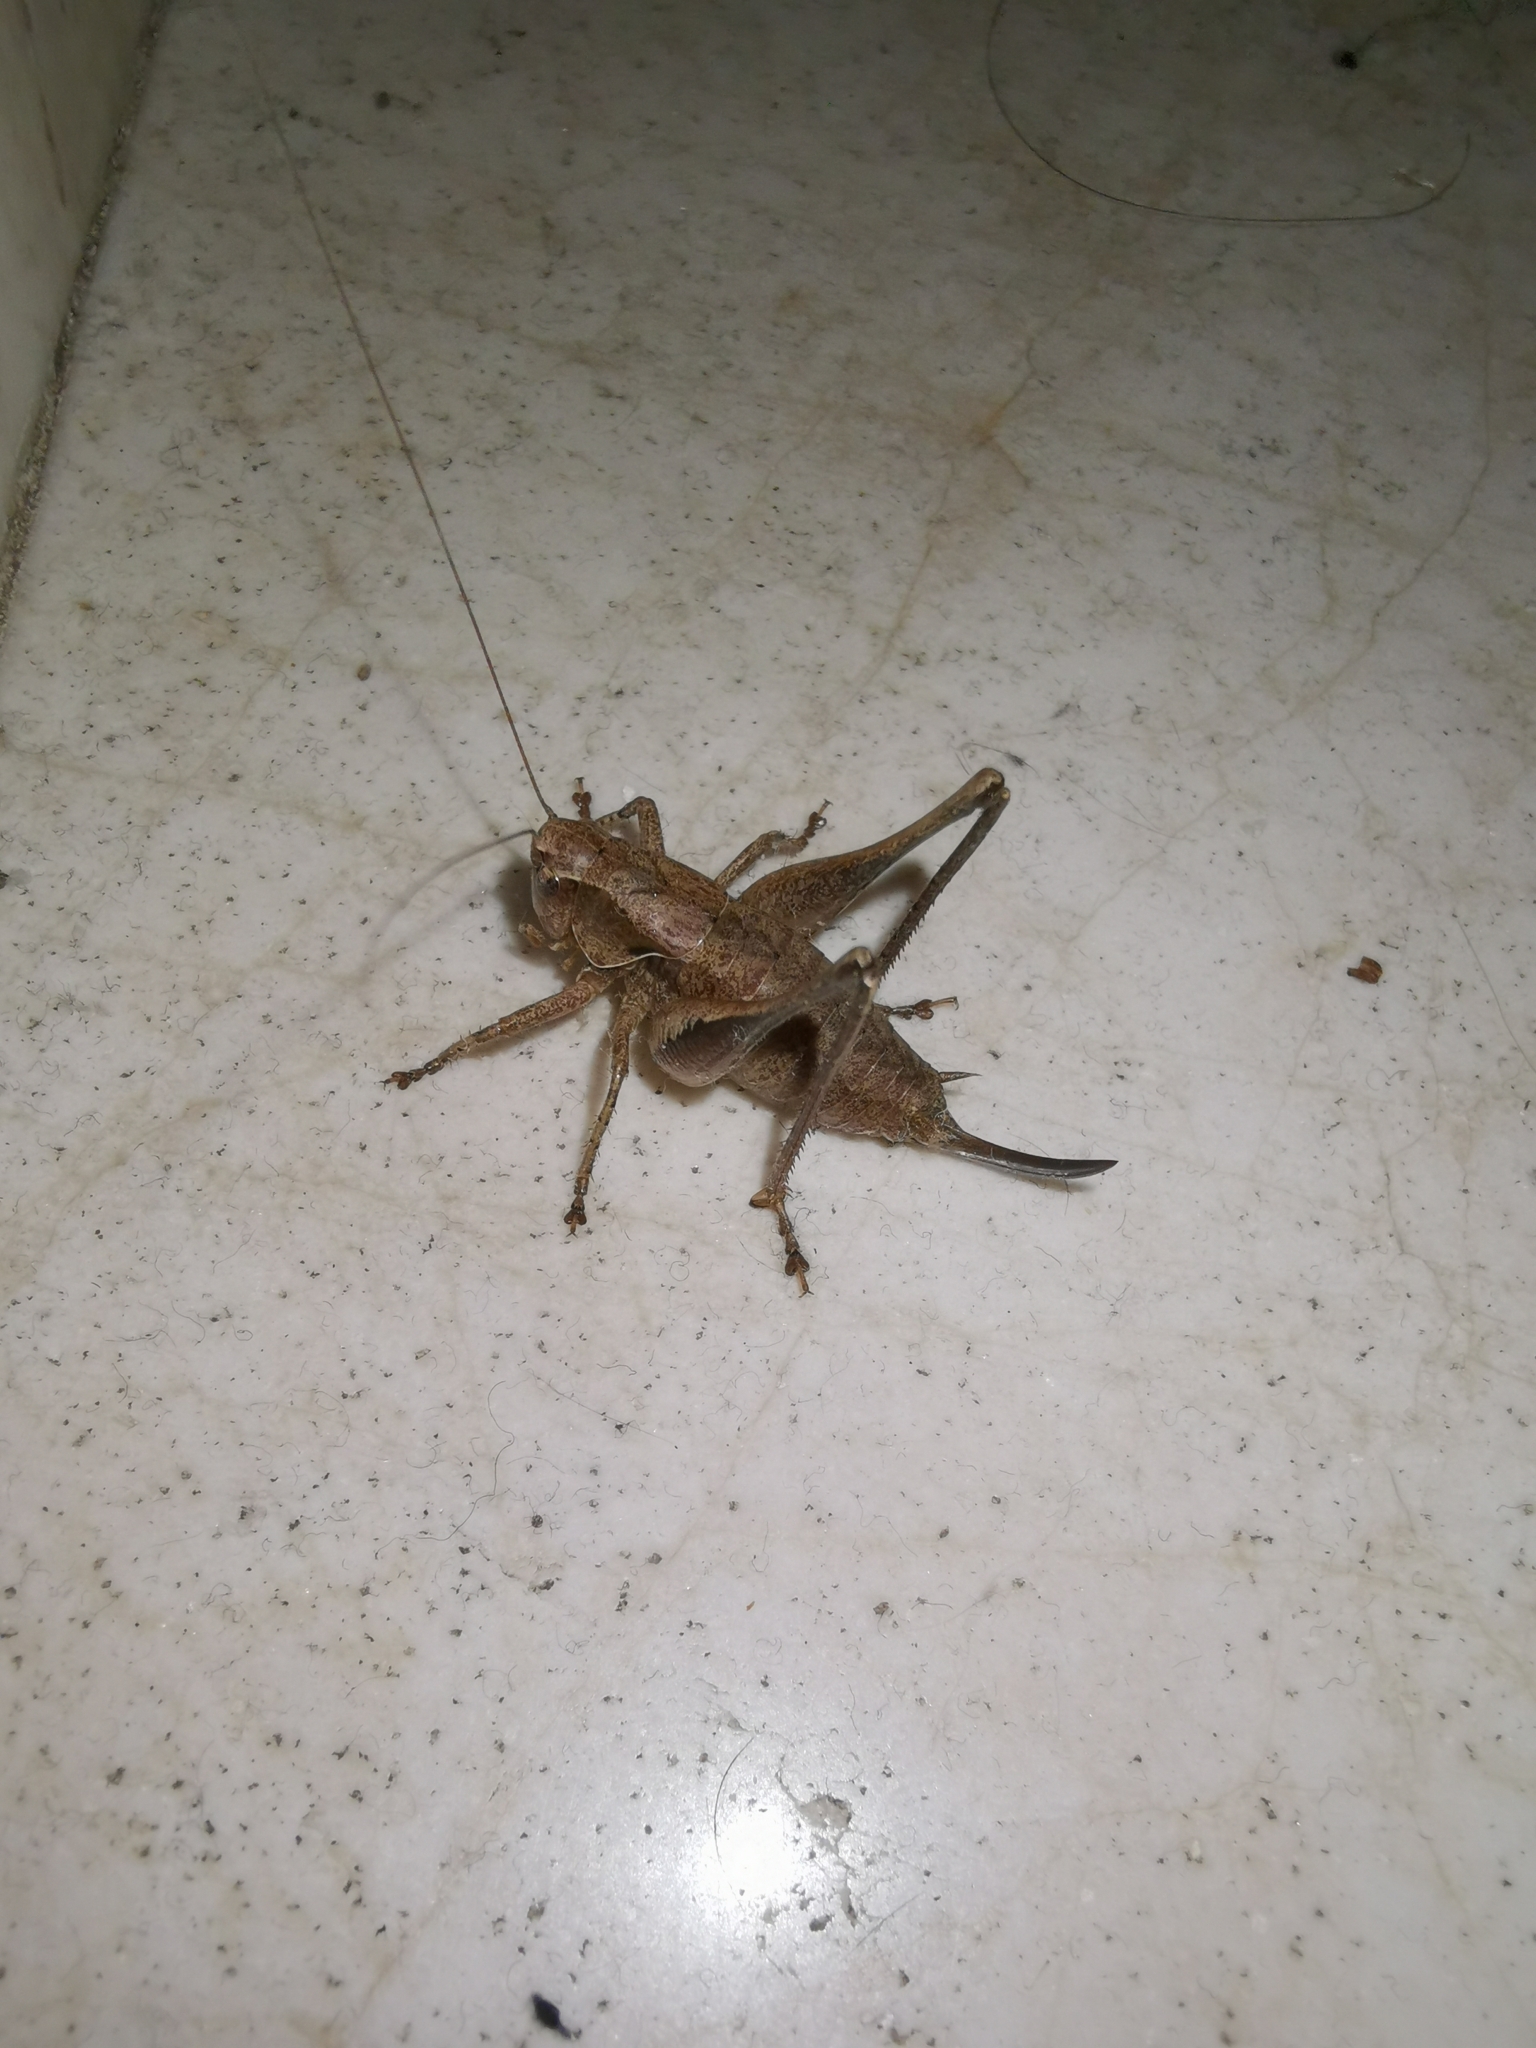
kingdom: Animalia
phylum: Arthropoda
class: Insecta
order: Orthoptera
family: Tettigoniidae
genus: Pholidoptera
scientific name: Pholidoptera griseoaptera
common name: Dark bush-cricket
